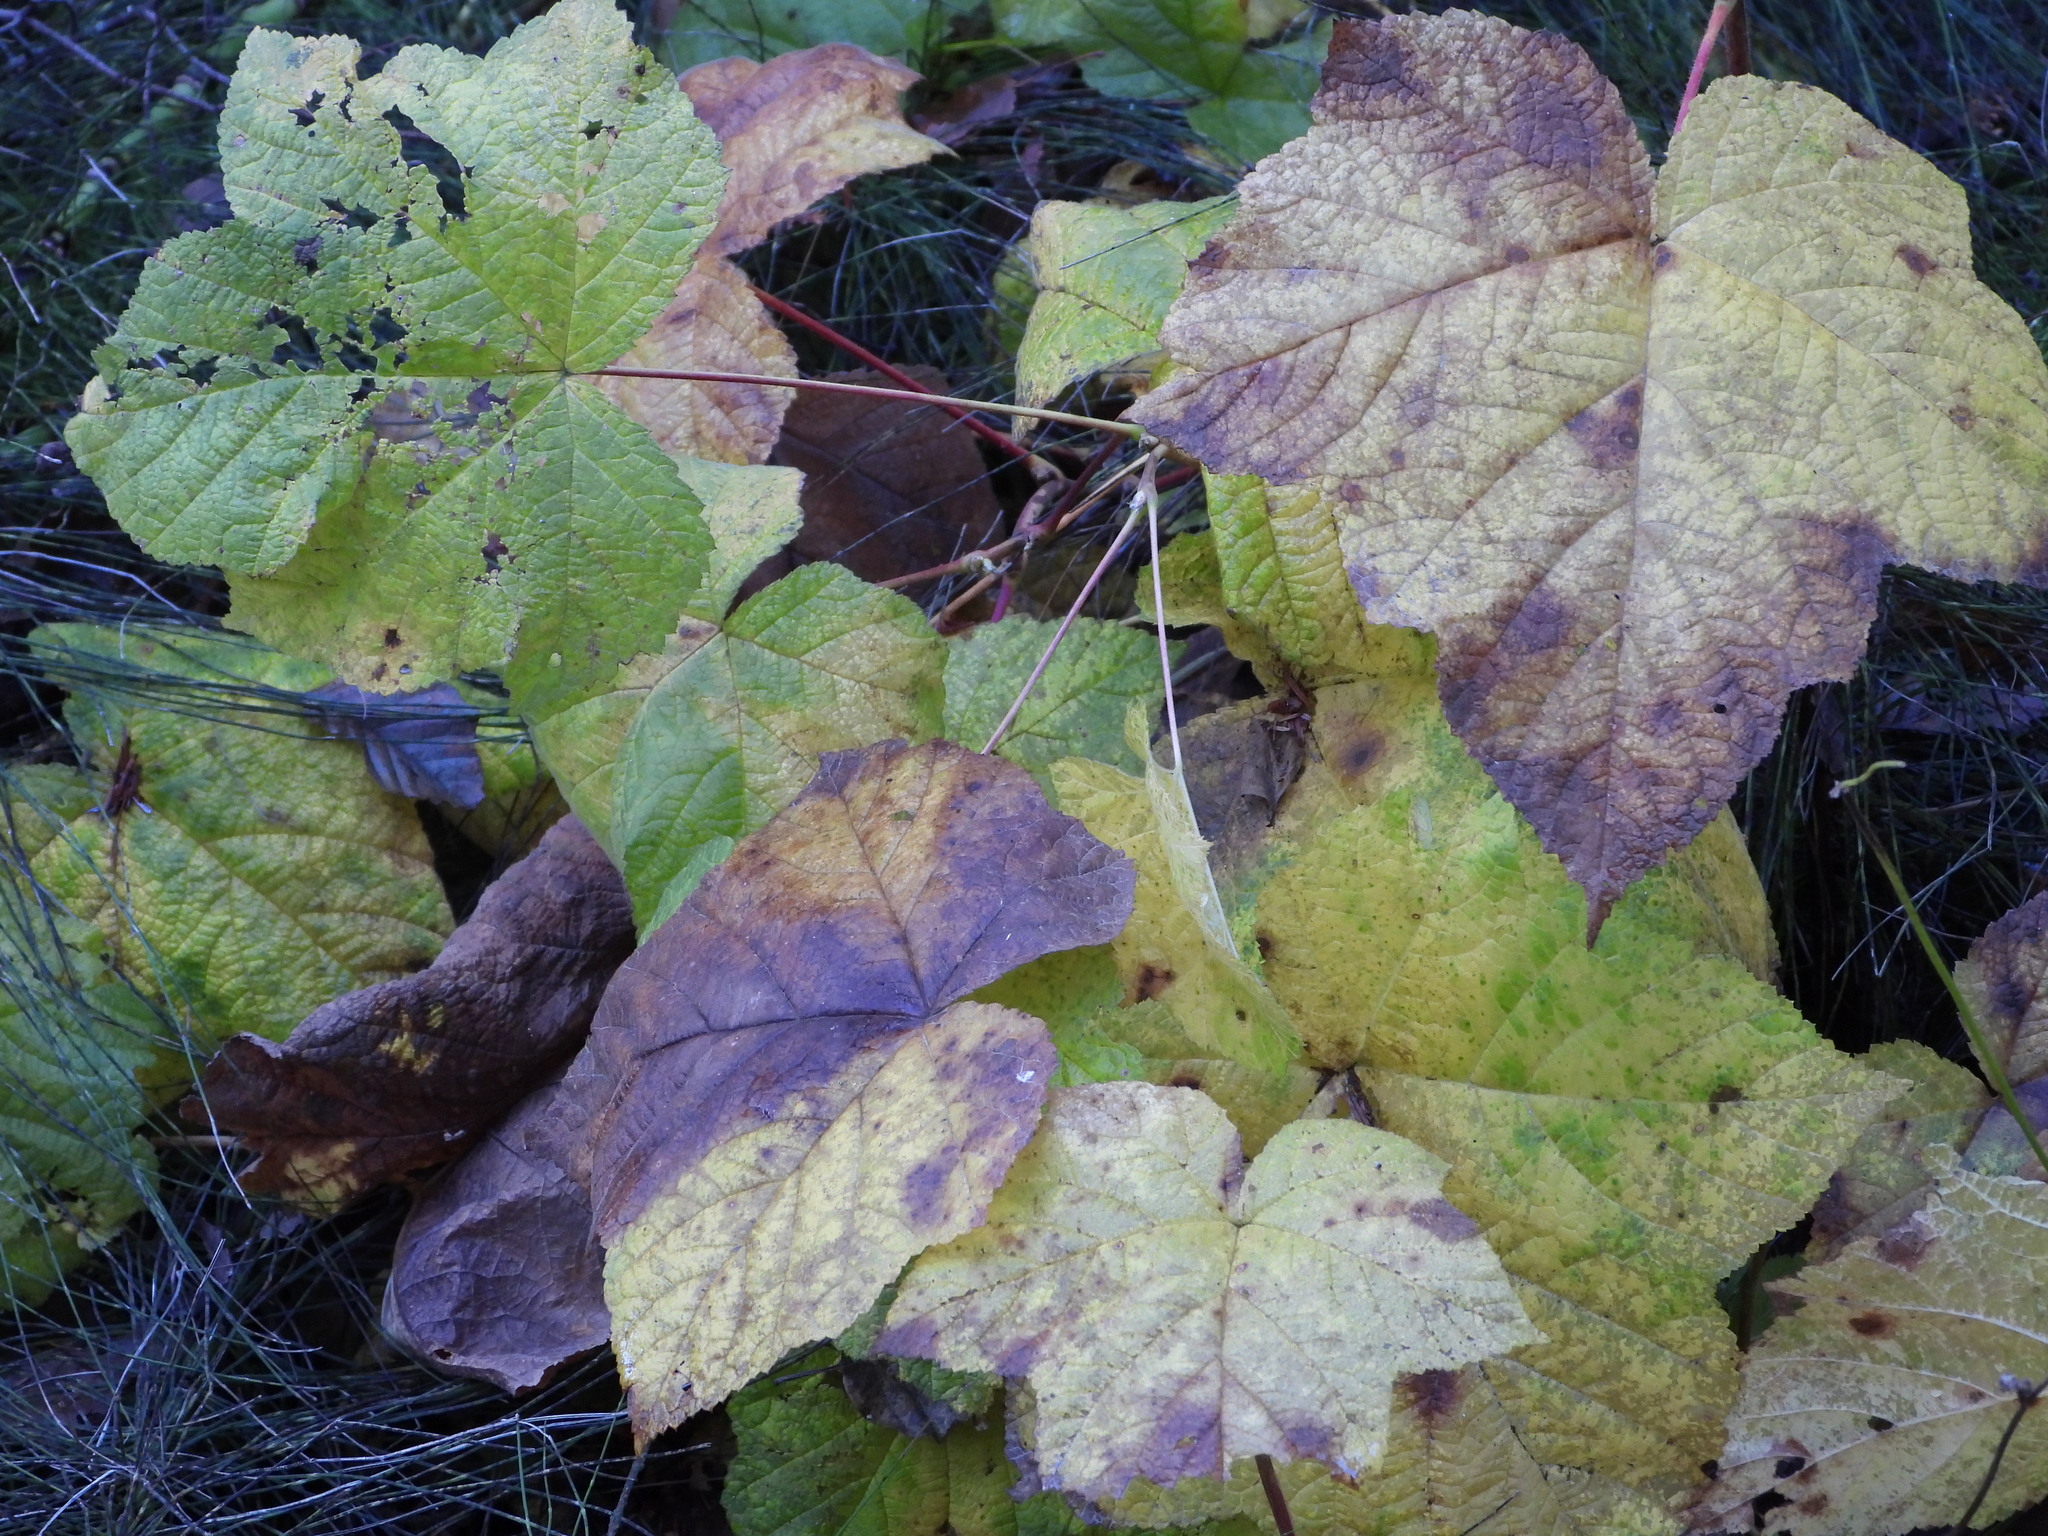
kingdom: Plantae
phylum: Tracheophyta
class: Magnoliopsida
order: Rosales
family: Rosaceae
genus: Rubus
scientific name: Rubus parviflorus
